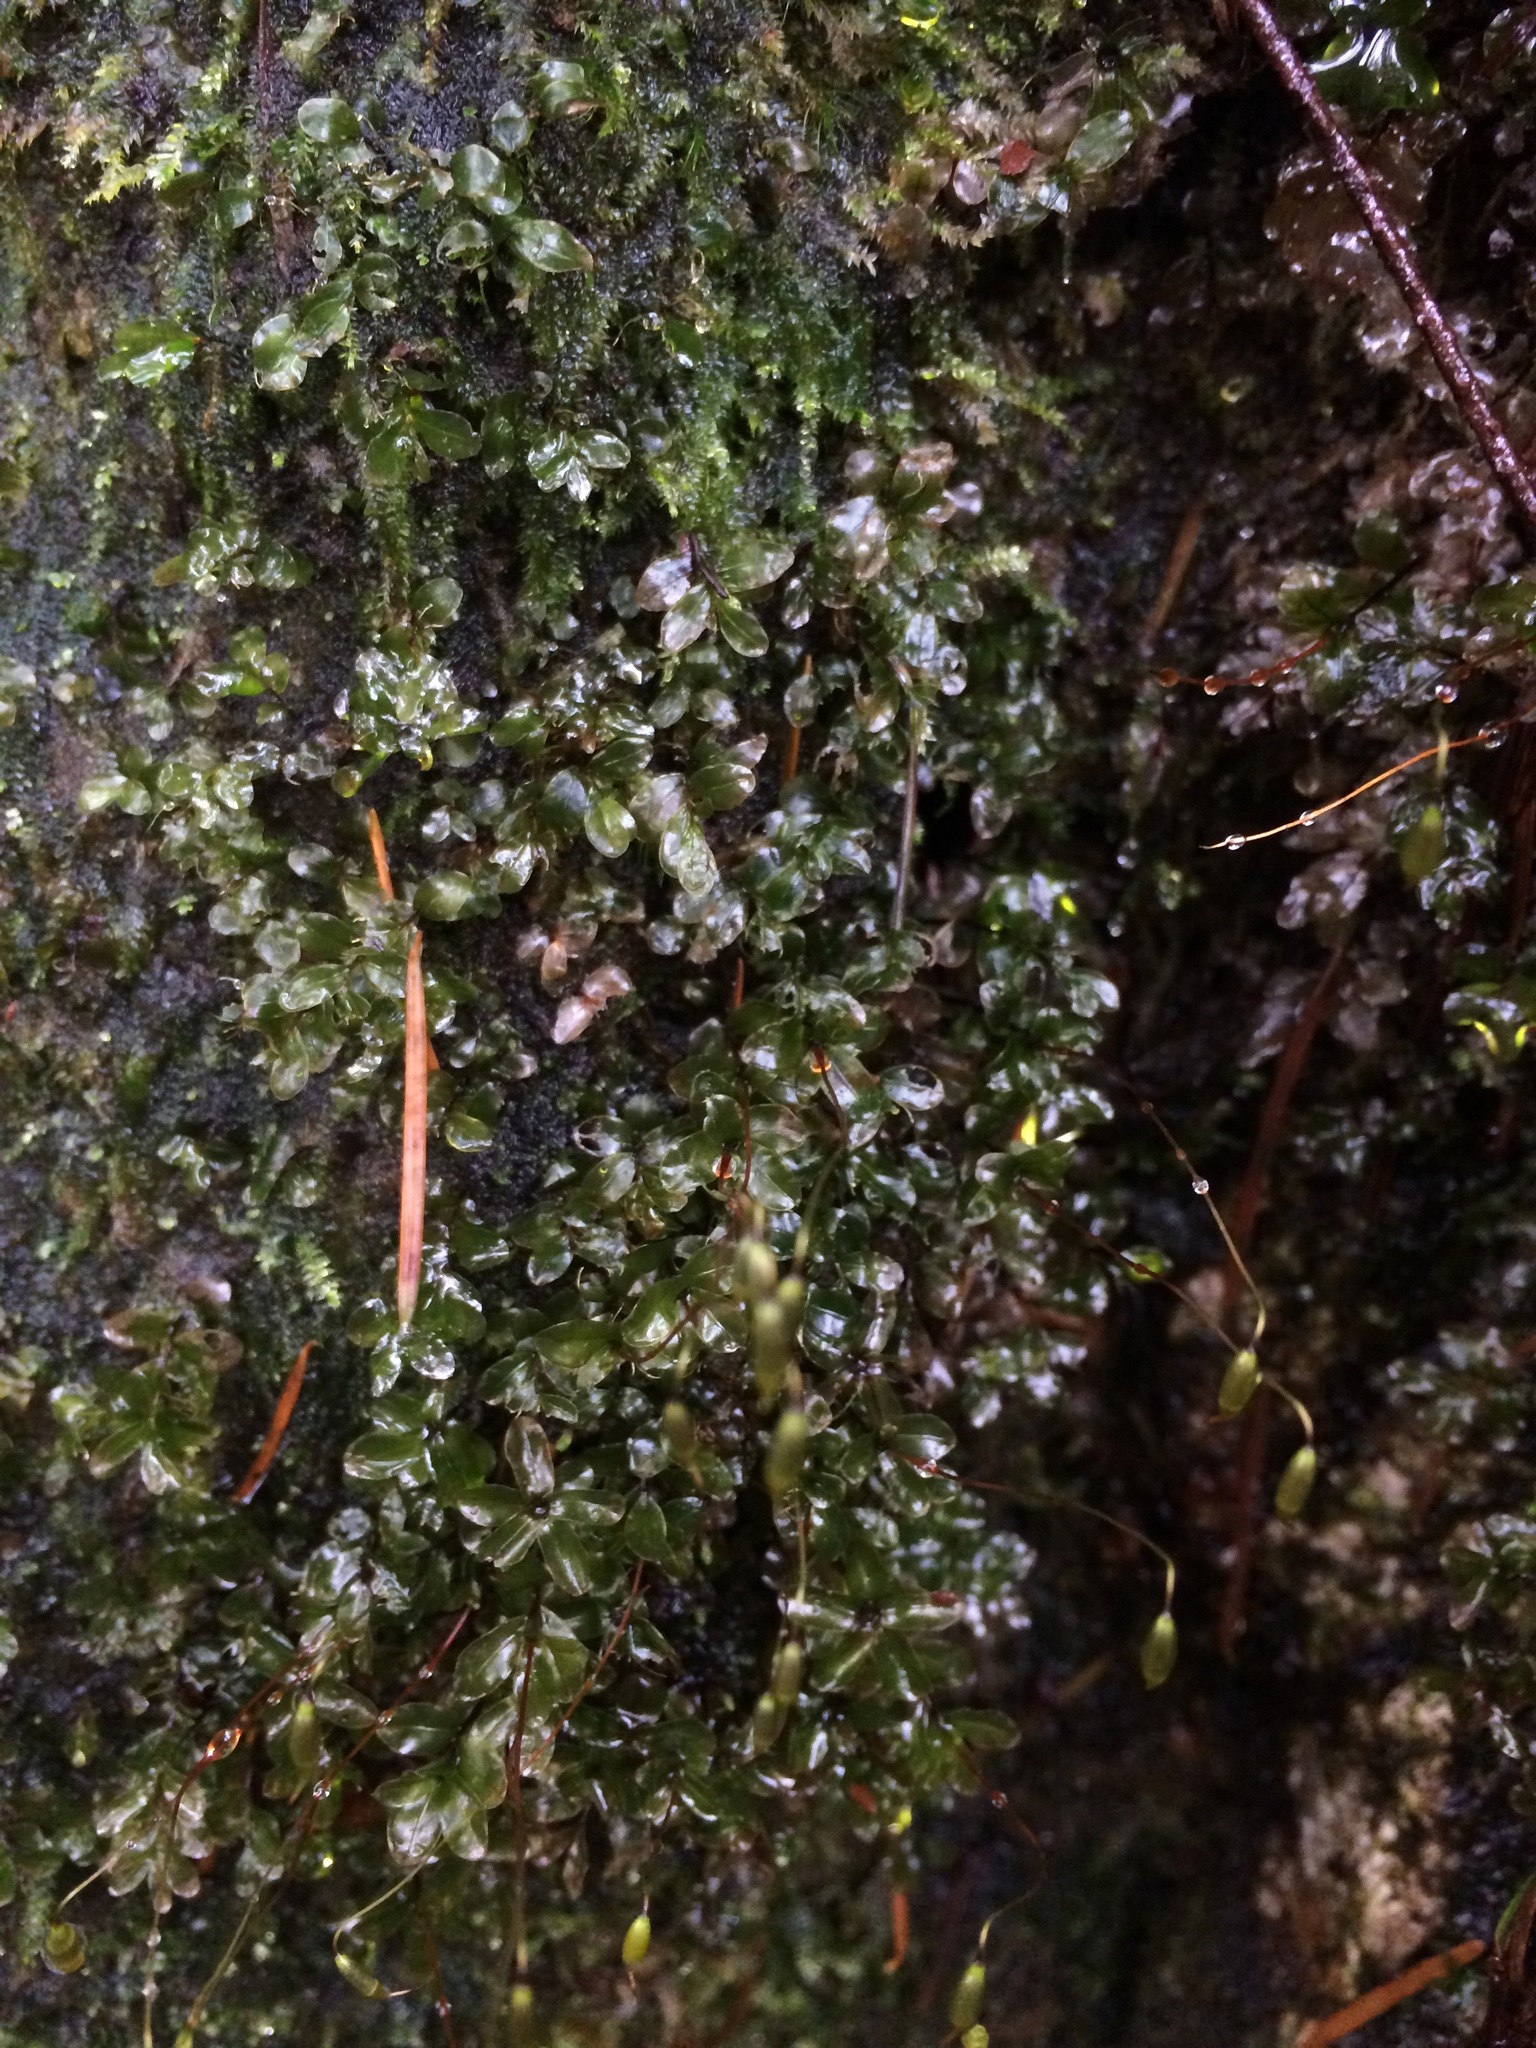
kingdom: Plantae
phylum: Bryophyta
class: Bryopsida
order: Bryales
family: Mniaceae
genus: Rhizomnium
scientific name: Rhizomnium glabrescens
